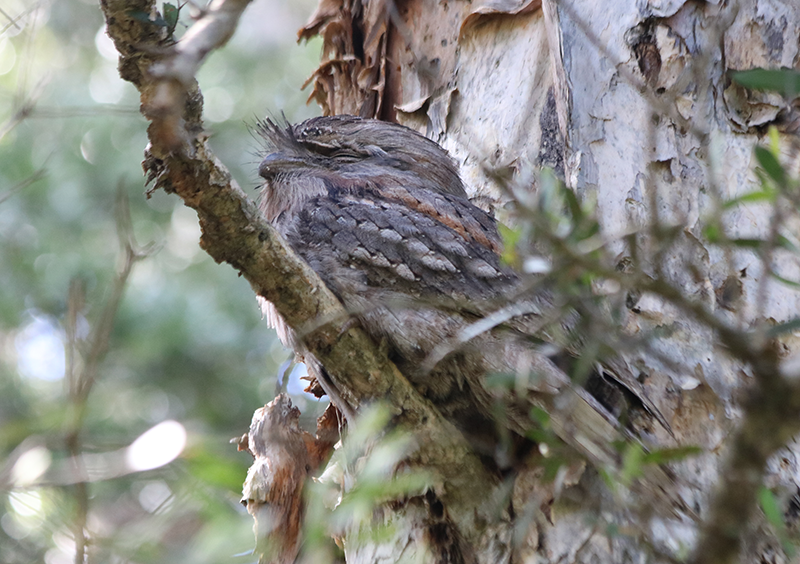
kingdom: Animalia
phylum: Chordata
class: Aves
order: Caprimulgiformes
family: Podargidae
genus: Podargus
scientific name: Podargus strigoides
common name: Tawny frogmouth
